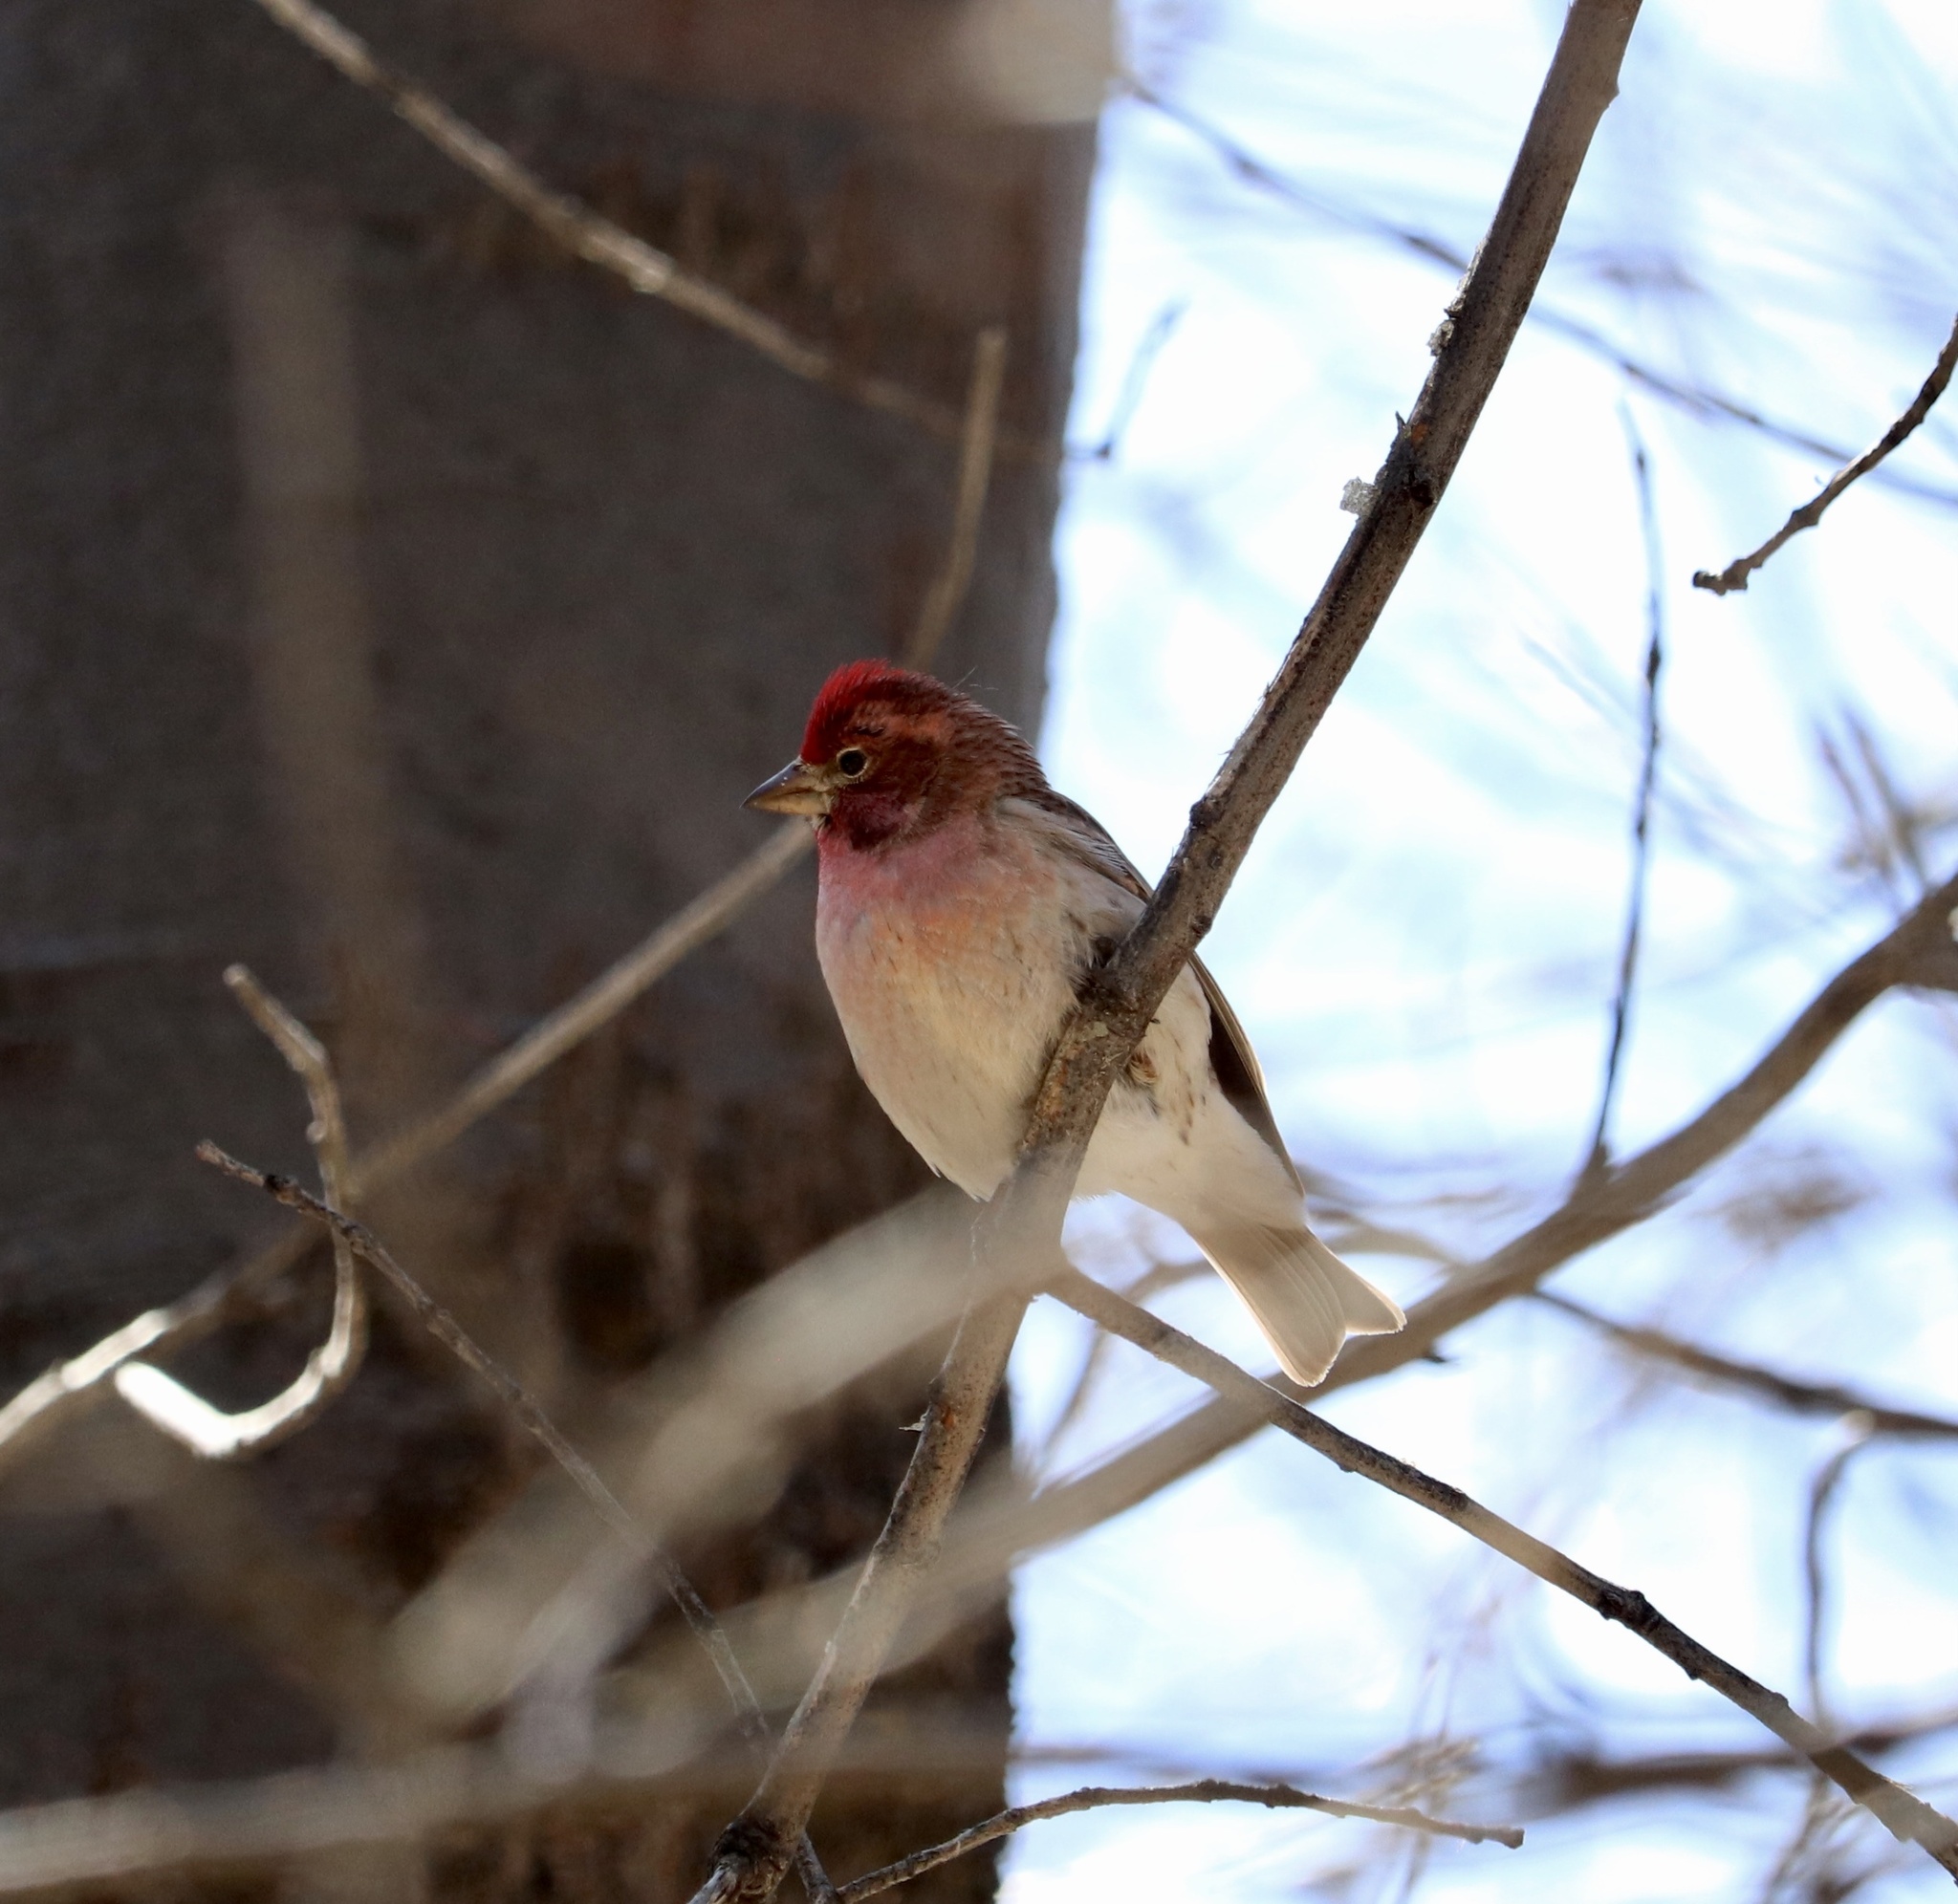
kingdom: Animalia
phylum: Chordata
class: Aves
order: Passeriformes
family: Fringillidae
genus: Haemorhous
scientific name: Haemorhous cassinii
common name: Cassin's finch
